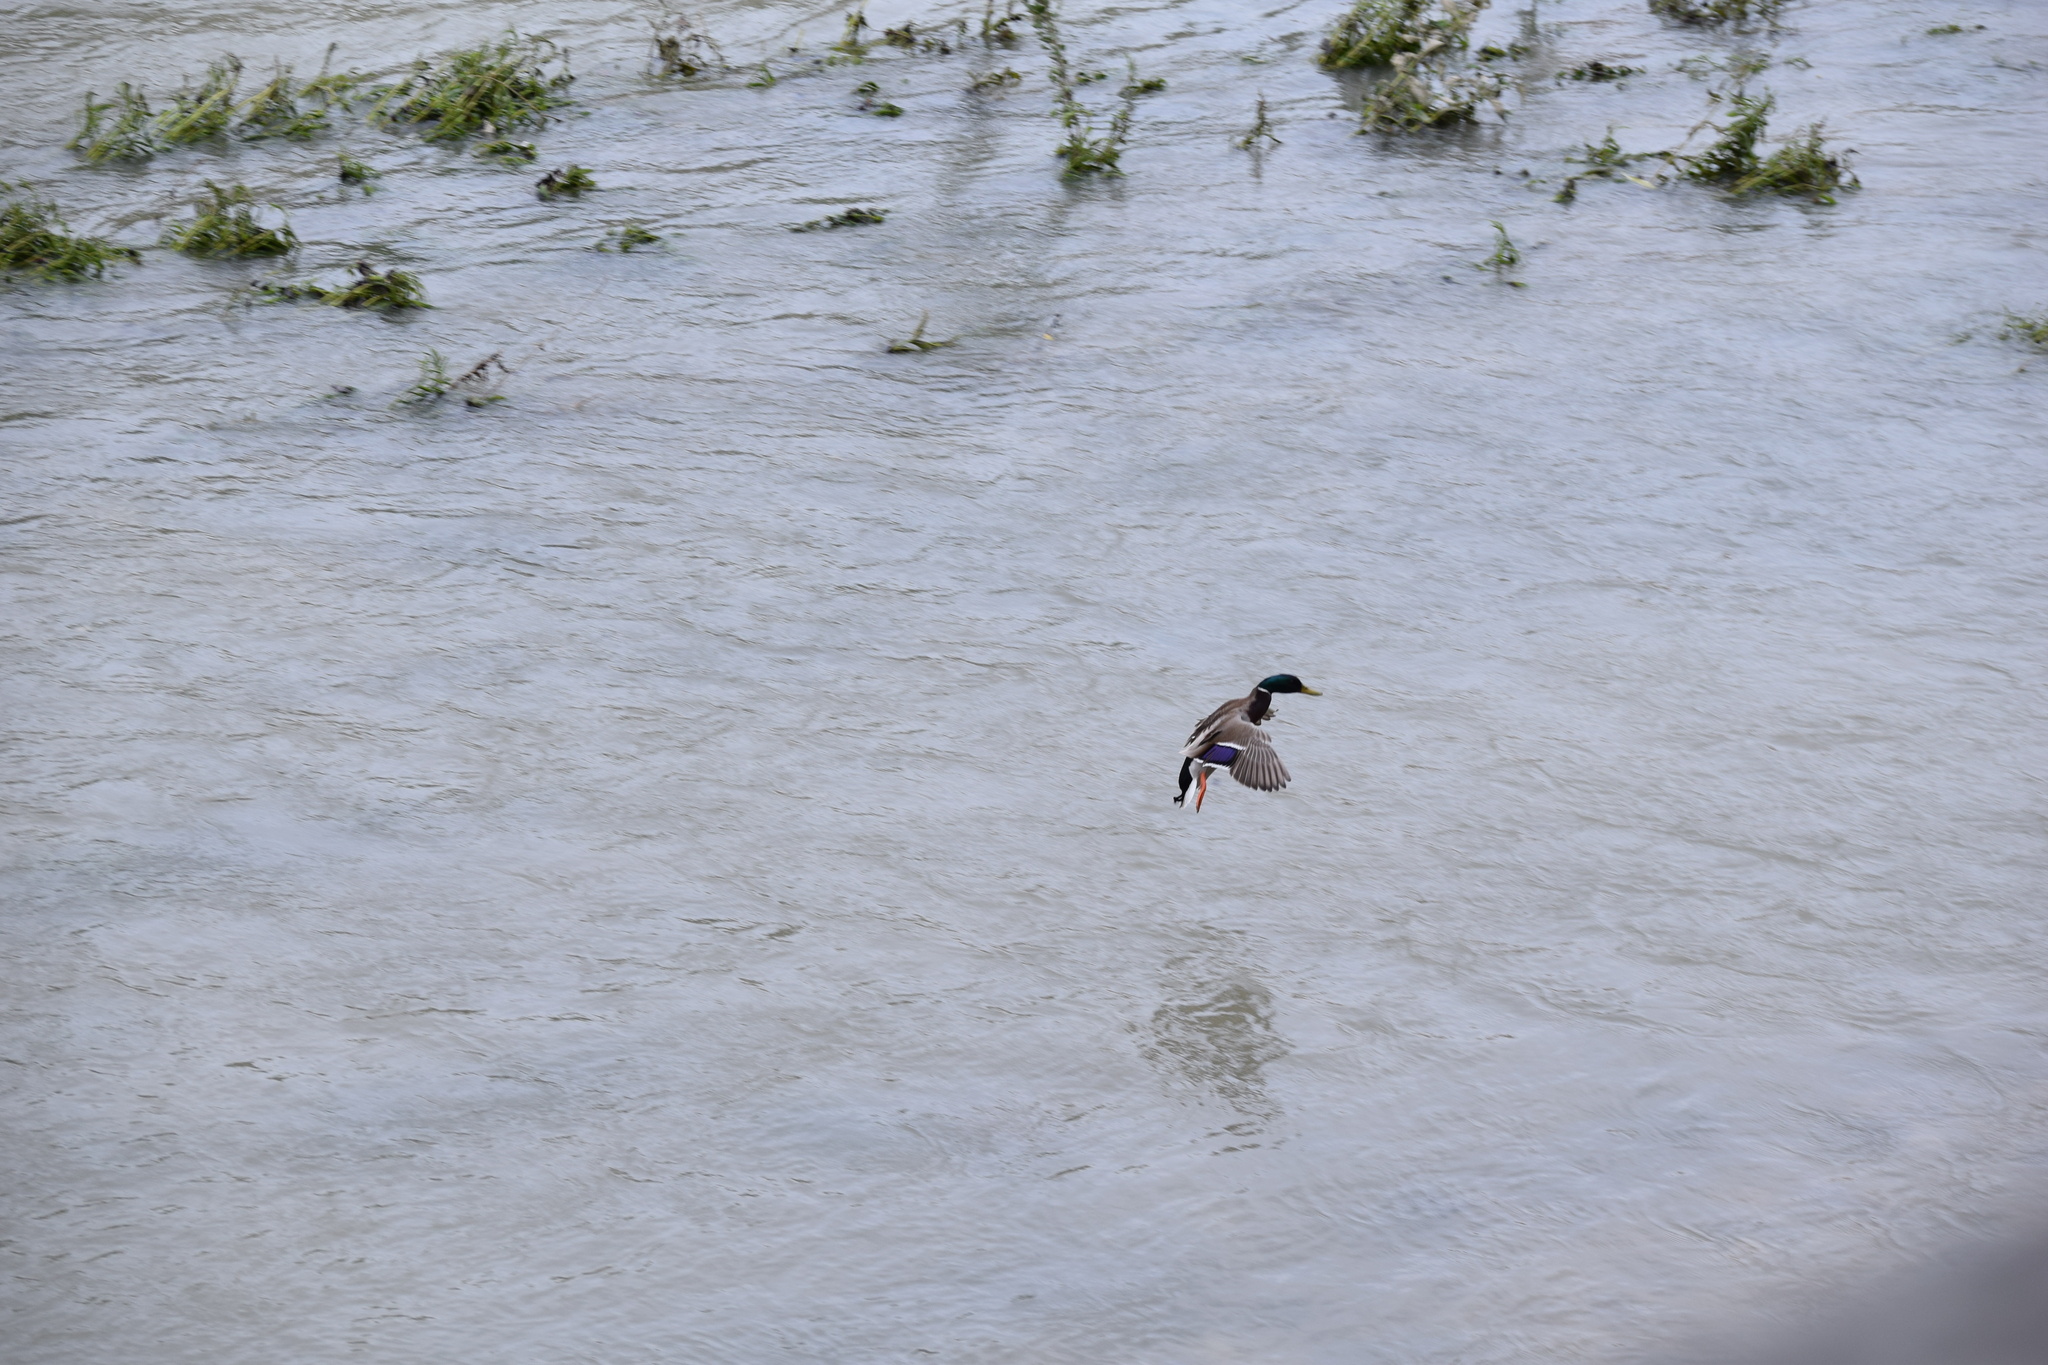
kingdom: Animalia
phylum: Chordata
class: Aves
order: Anseriformes
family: Anatidae
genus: Anas
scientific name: Anas platyrhynchos
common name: Mallard
